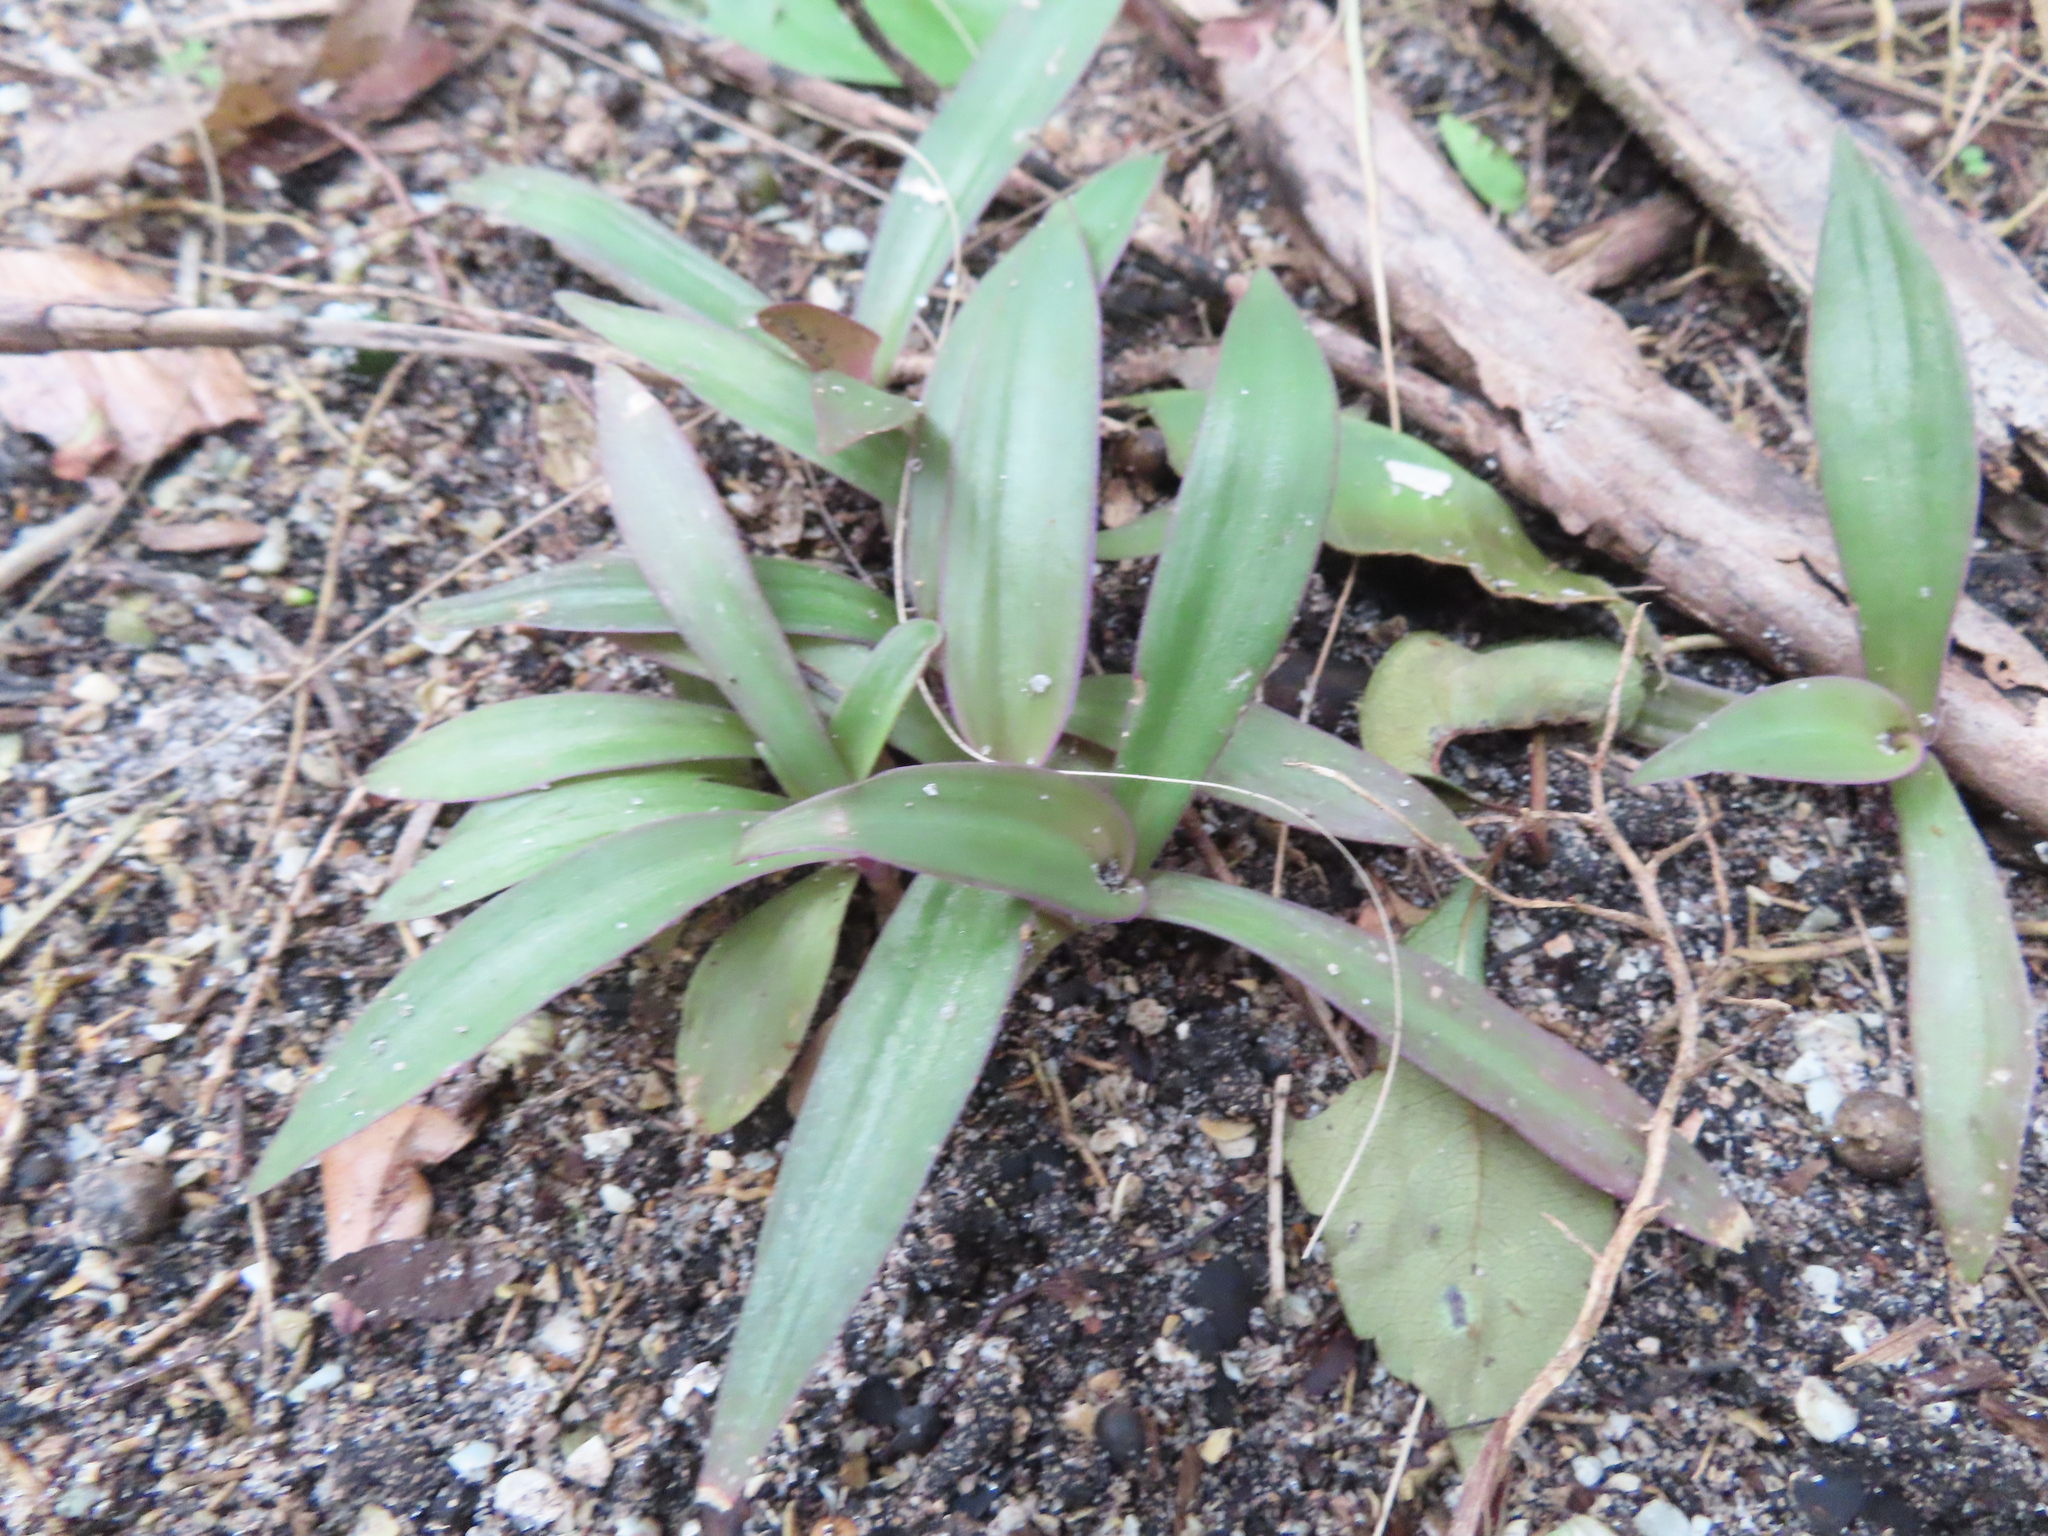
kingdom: Plantae
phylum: Tracheophyta
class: Liliopsida
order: Commelinales
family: Commelinaceae
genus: Tradescantia
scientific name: Tradescantia spathacea
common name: Boatlily
